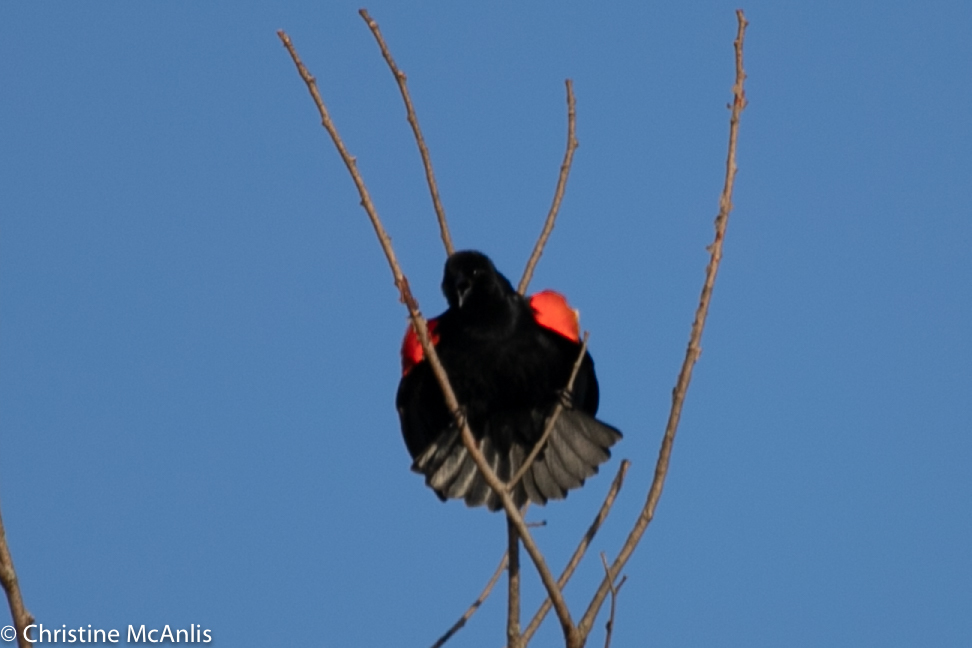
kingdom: Animalia
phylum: Chordata
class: Aves
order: Passeriformes
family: Icteridae
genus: Agelaius
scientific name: Agelaius phoeniceus
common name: Red-winged blackbird
